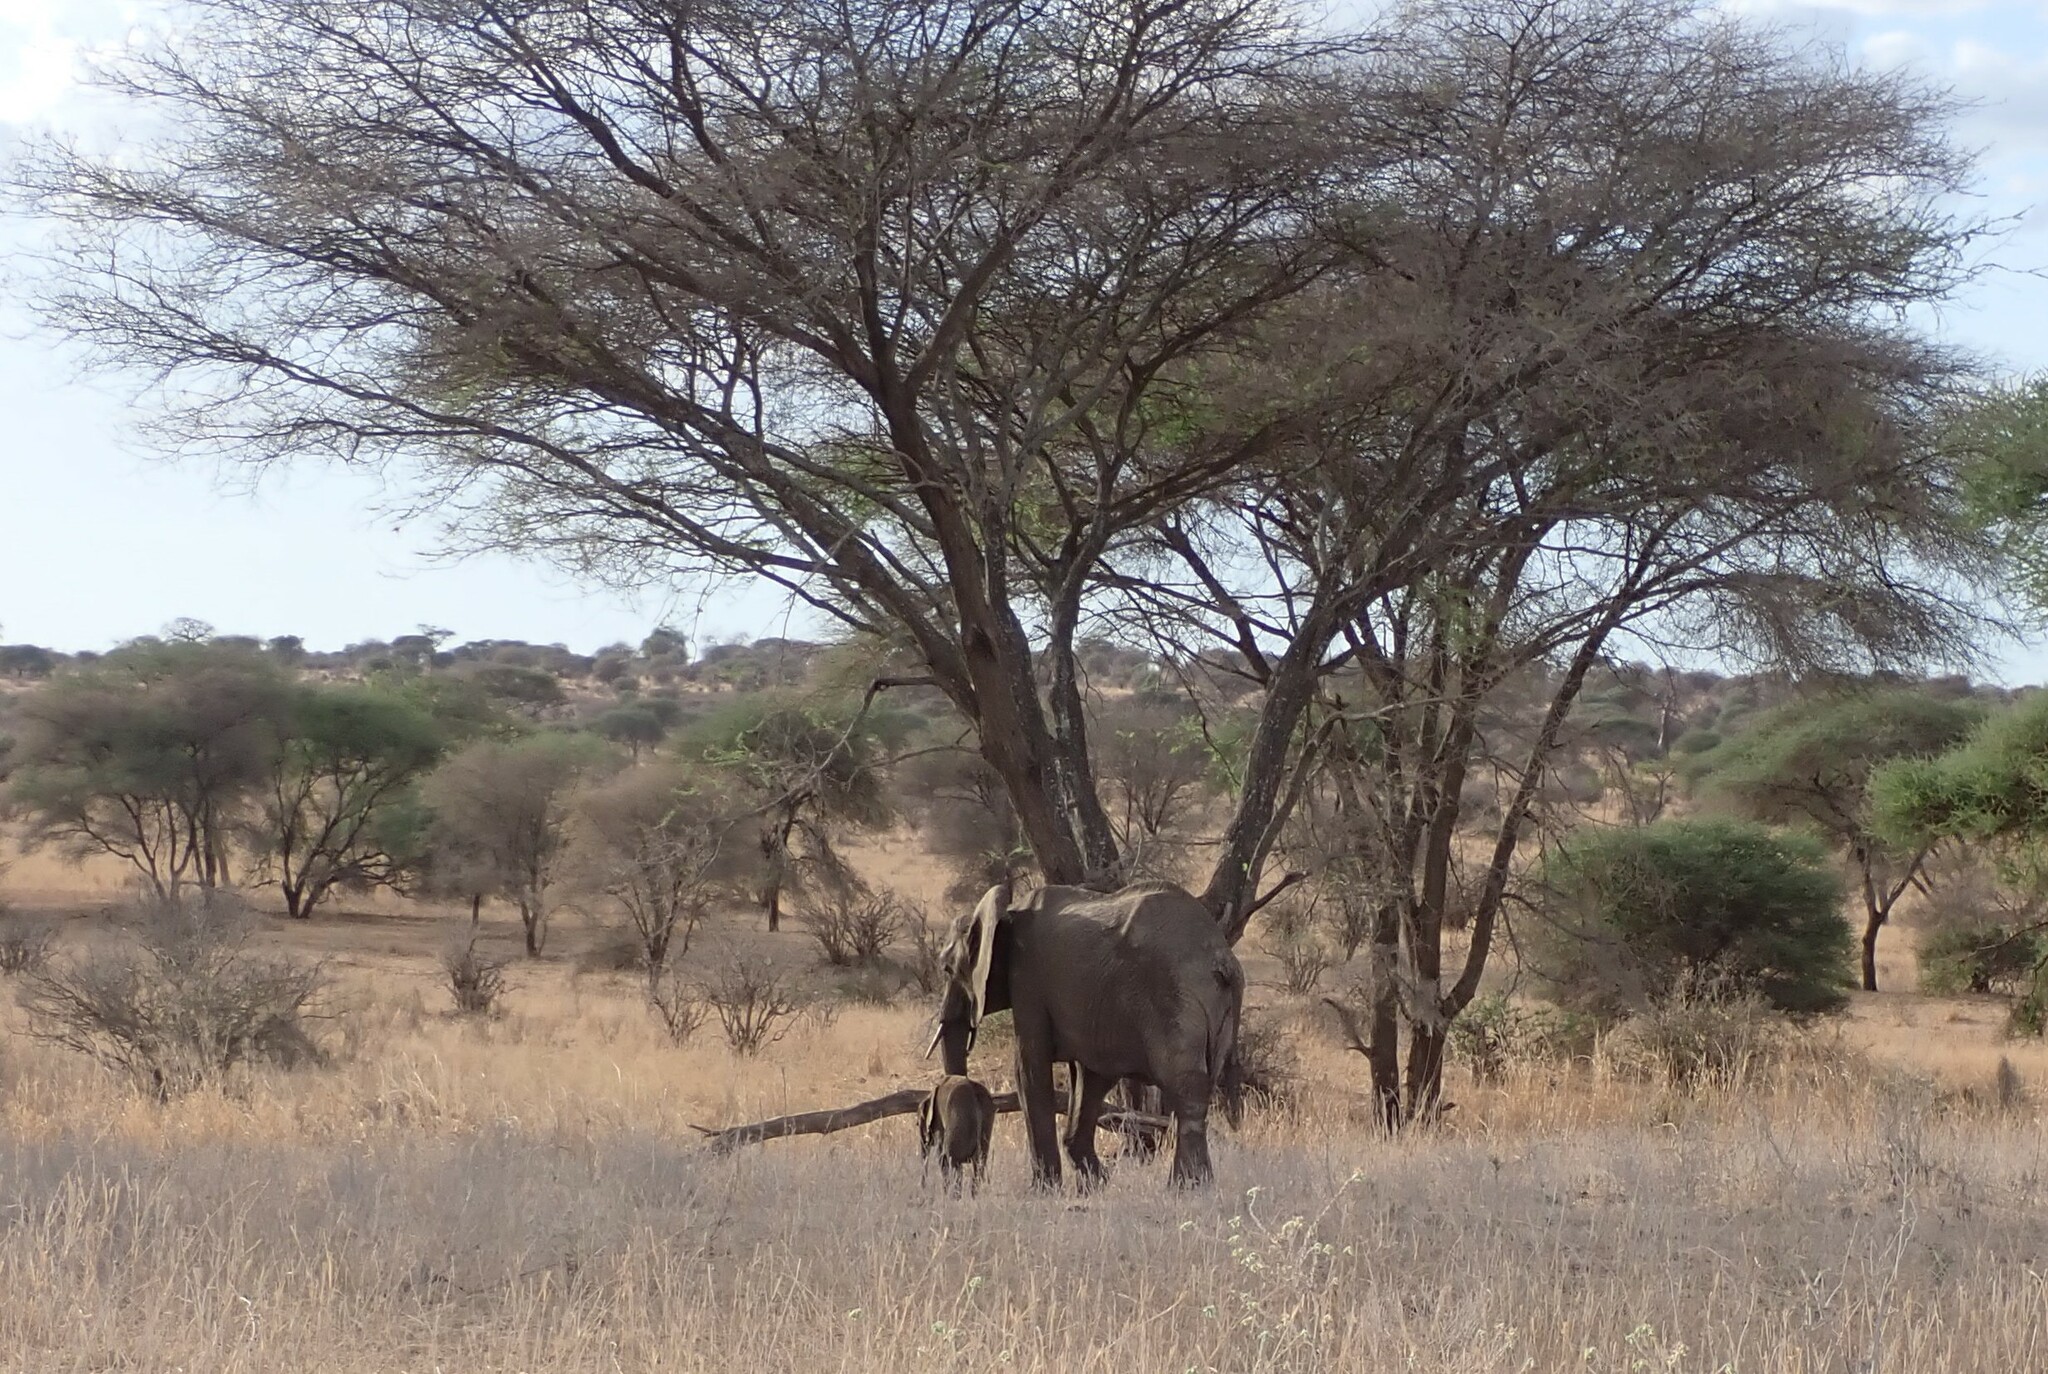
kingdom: Animalia
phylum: Chordata
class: Mammalia
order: Proboscidea
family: Elephantidae
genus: Loxodonta
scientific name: Loxodonta africana
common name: African elephant
